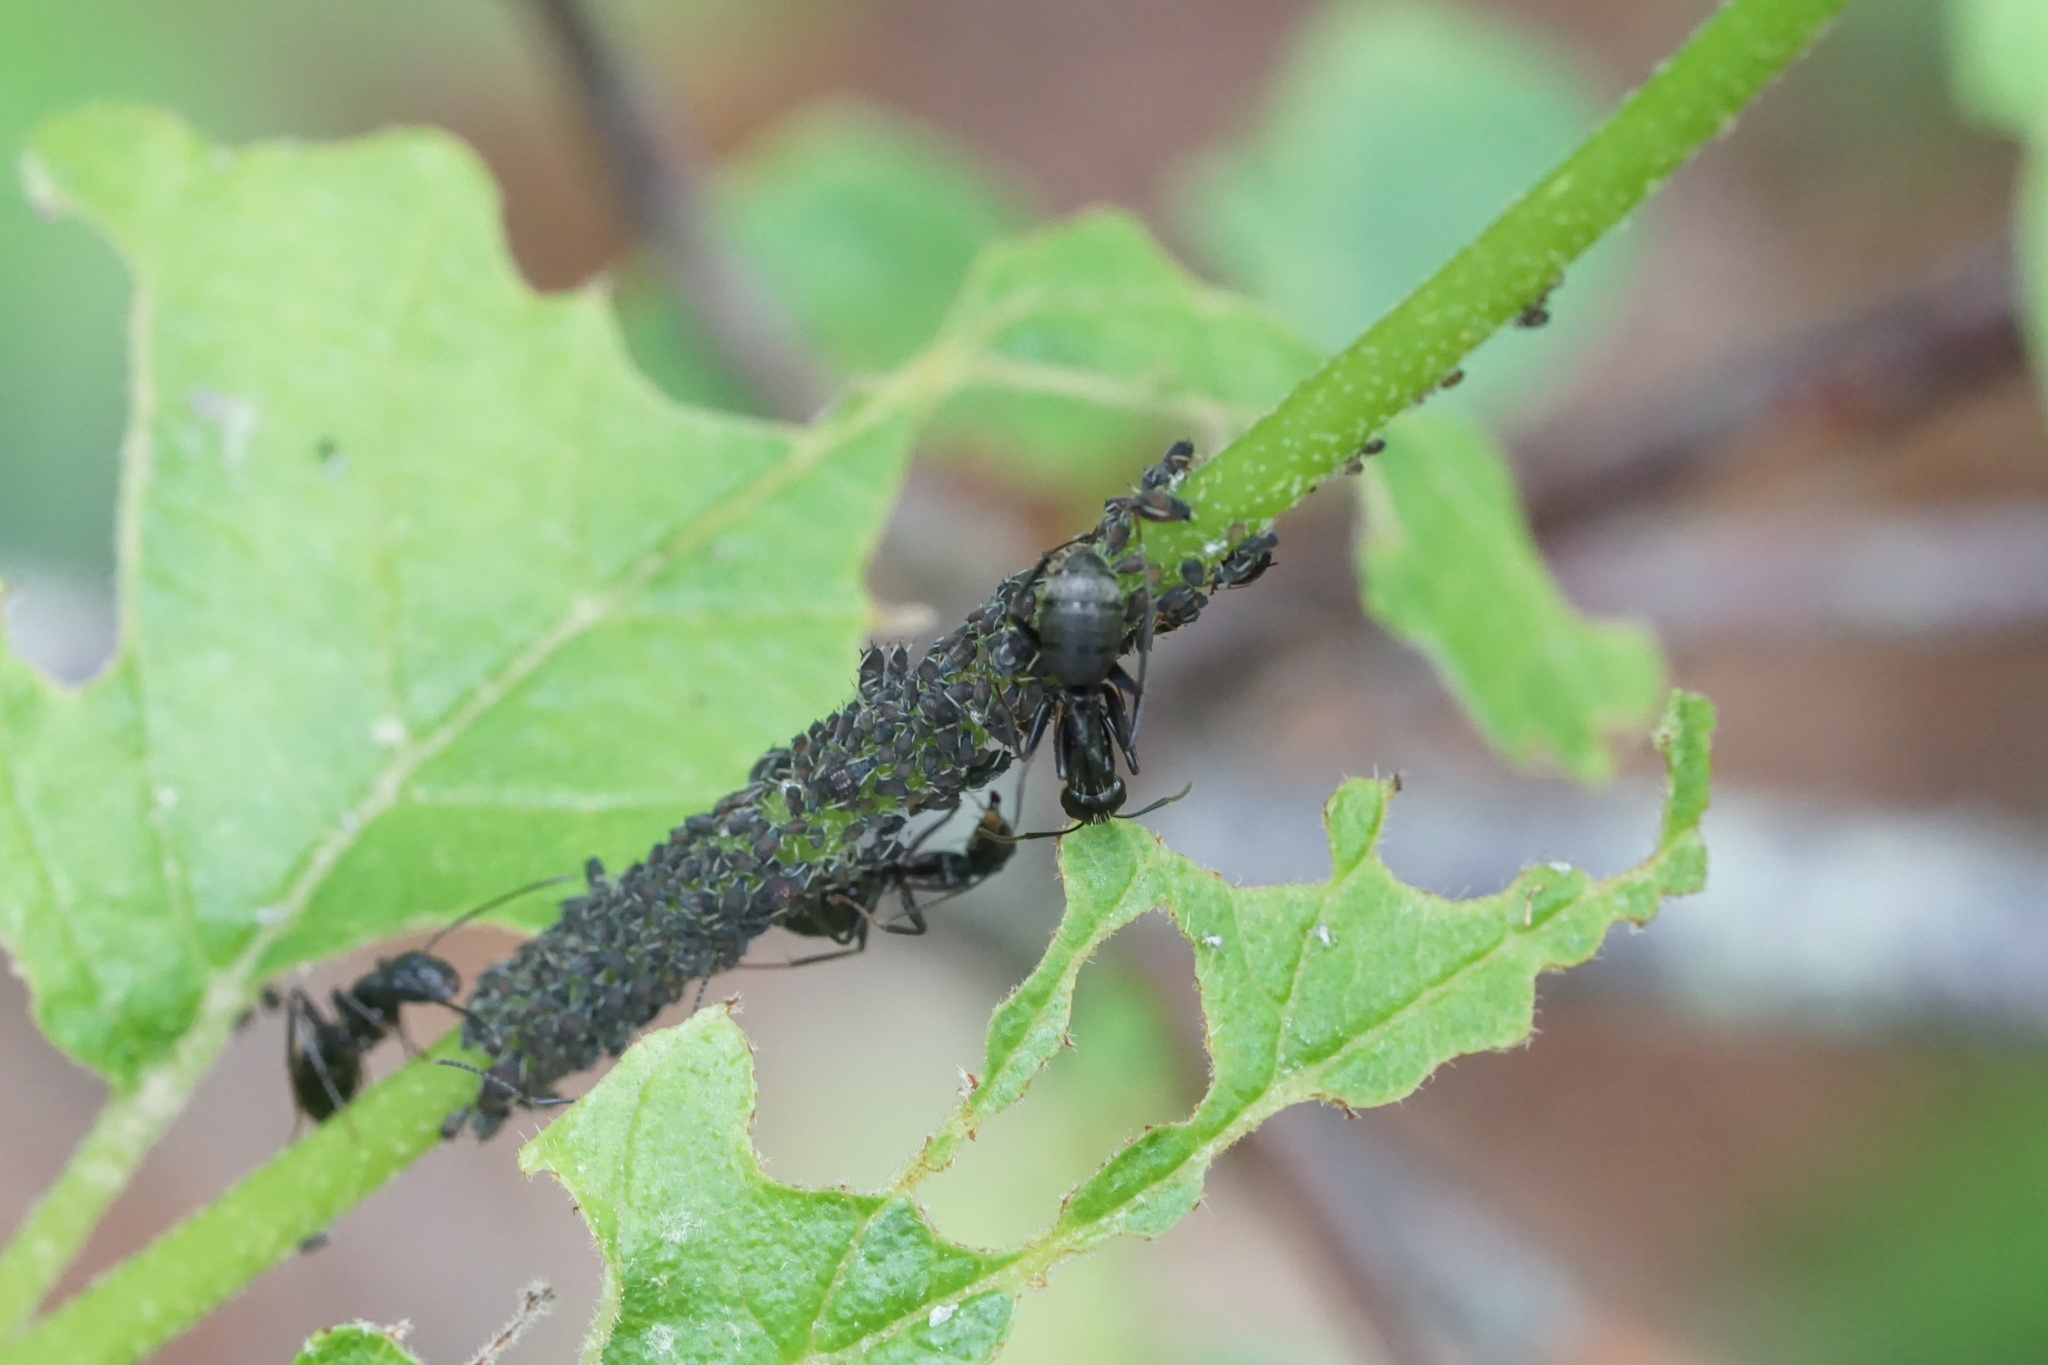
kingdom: Animalia
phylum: Arthropoda
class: Insecta
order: Hymenoptera
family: Formicidae
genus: Camponotus
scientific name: Camponotus pennsylvanicus
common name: Black carpenter ant
